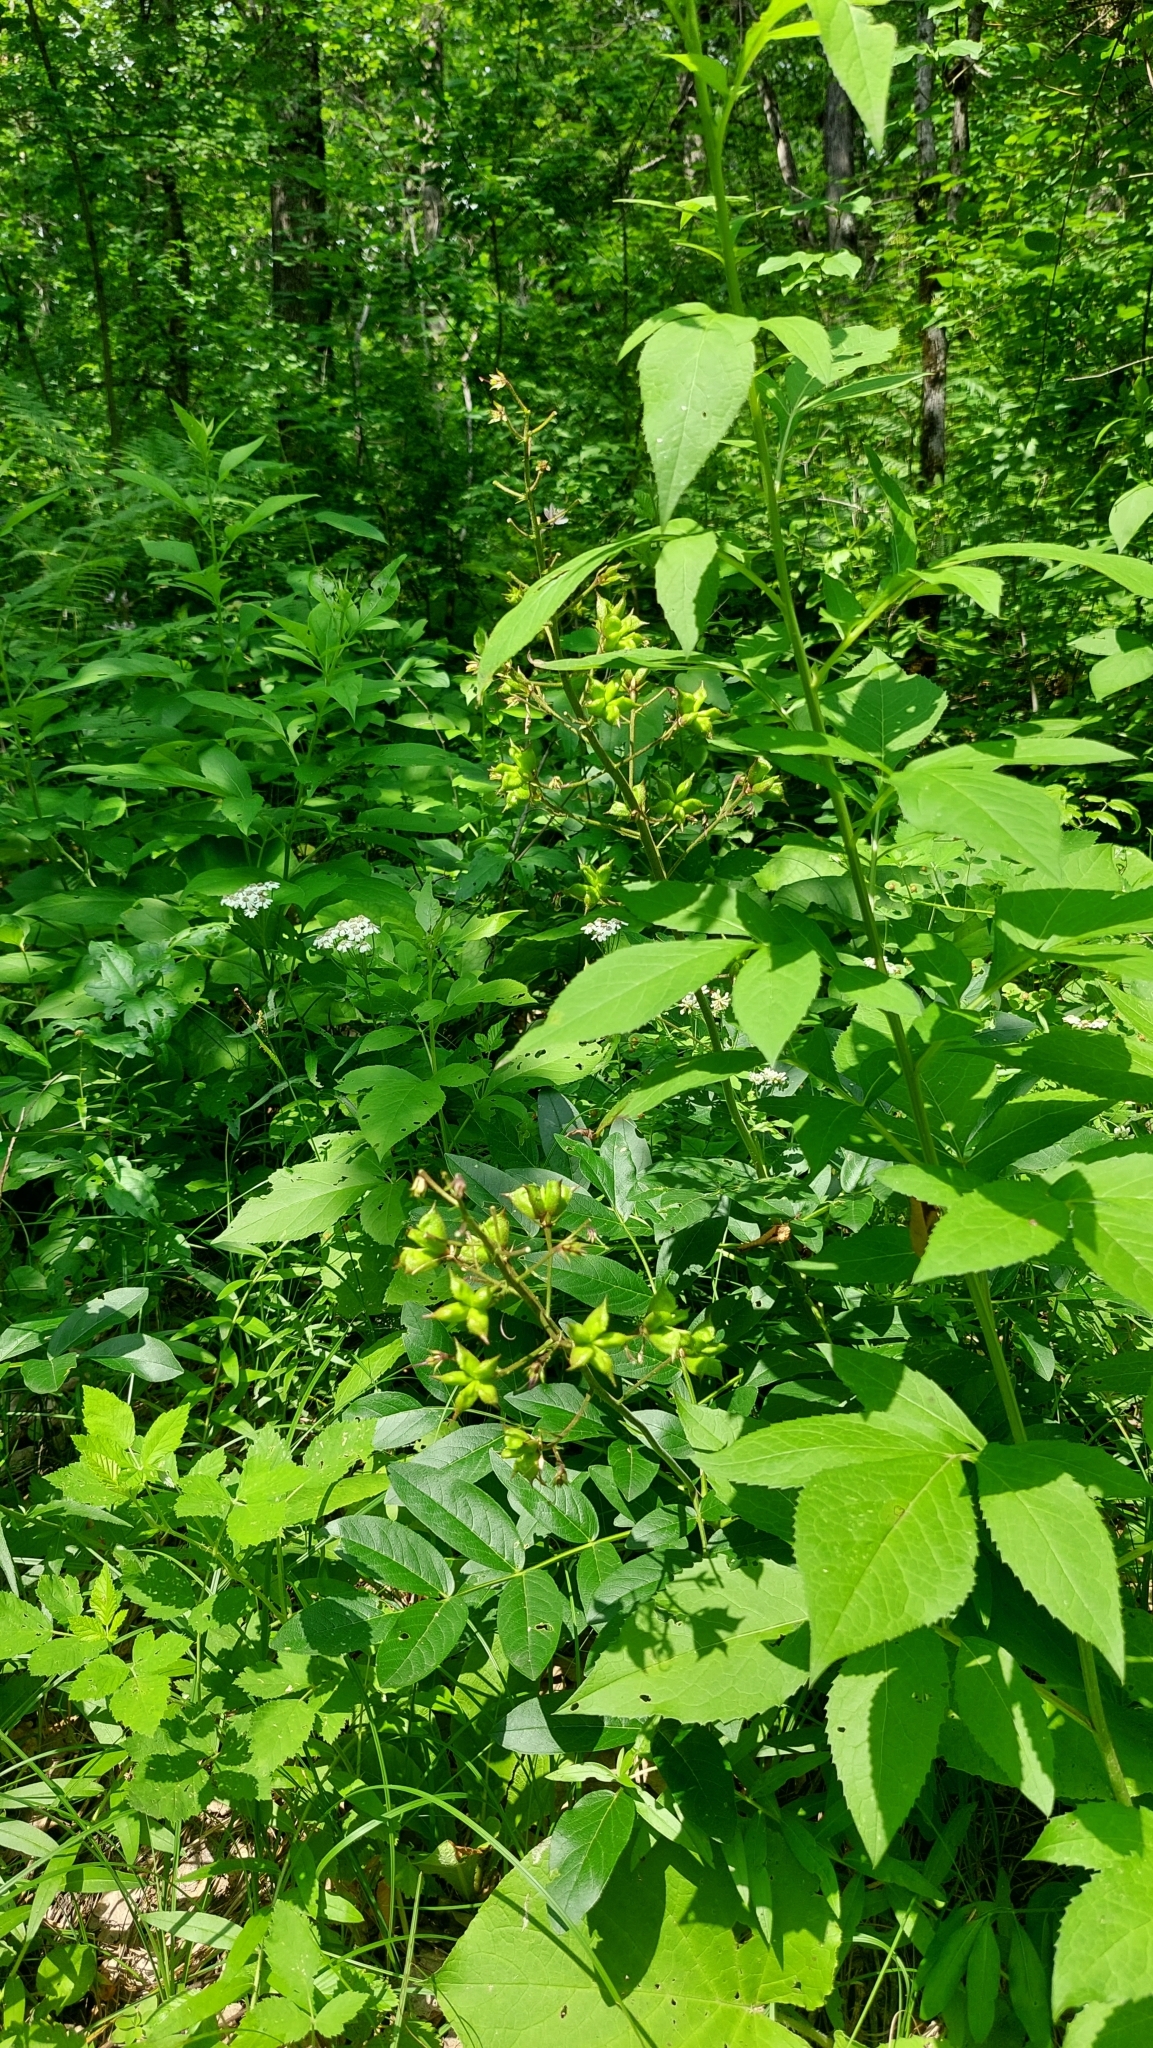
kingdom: Plantae
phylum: Tracheophyta
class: Magnoliopsida
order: Sapindales
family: Rutaceae
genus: Dictamnus
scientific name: Dictamnus albus
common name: Gasplant
